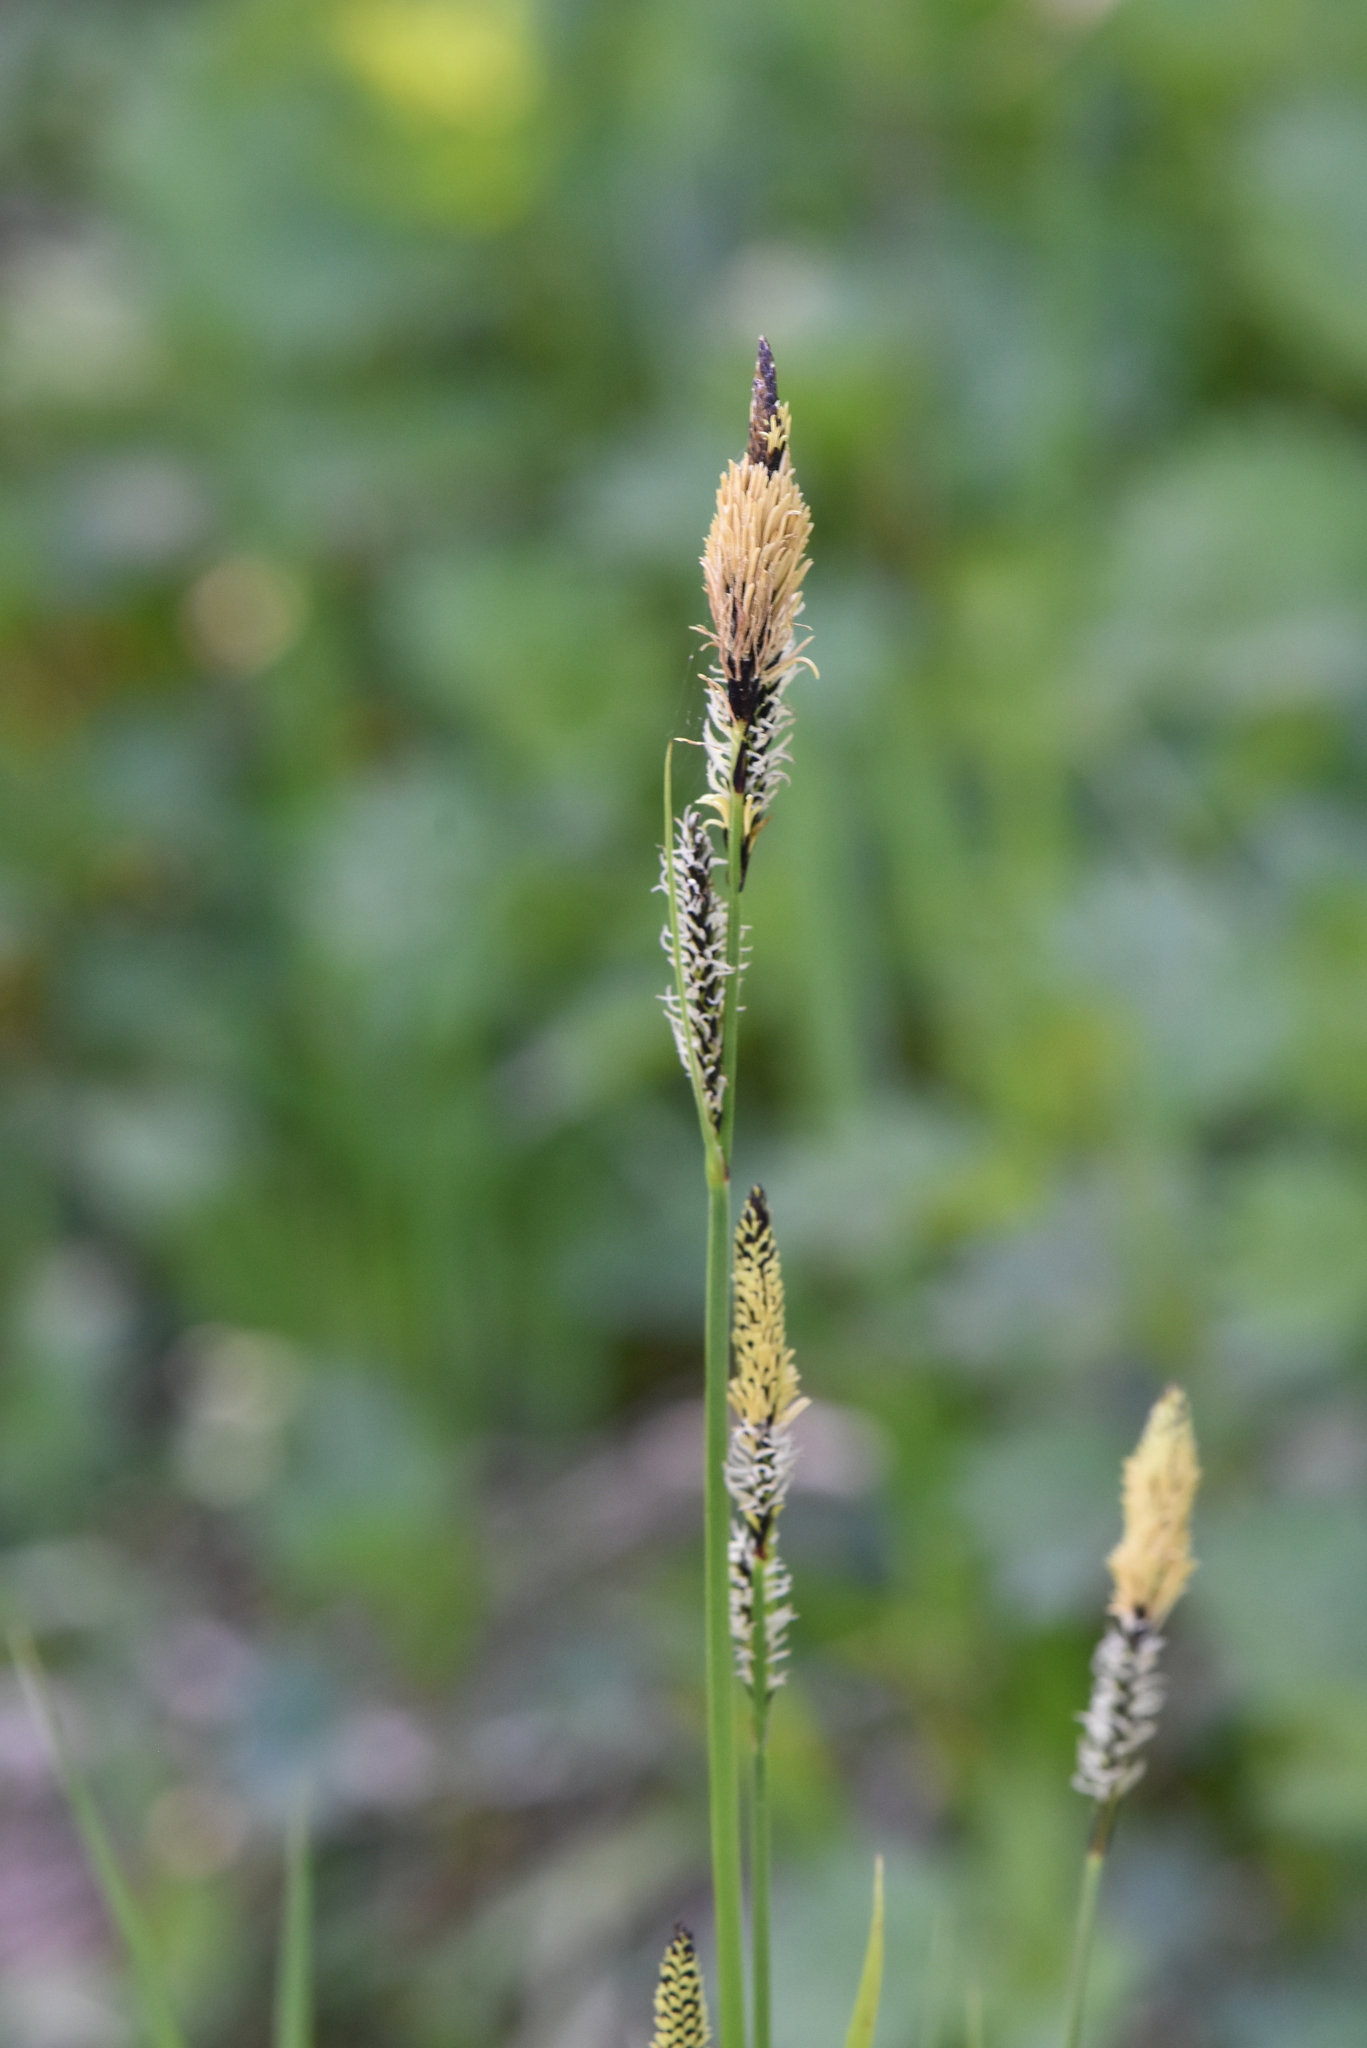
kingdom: Plantae
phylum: Tracheophyta
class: Liliopsida
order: Poales
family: Cyperaceae
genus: Carex
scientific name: Carex nigra
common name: Common sedge
